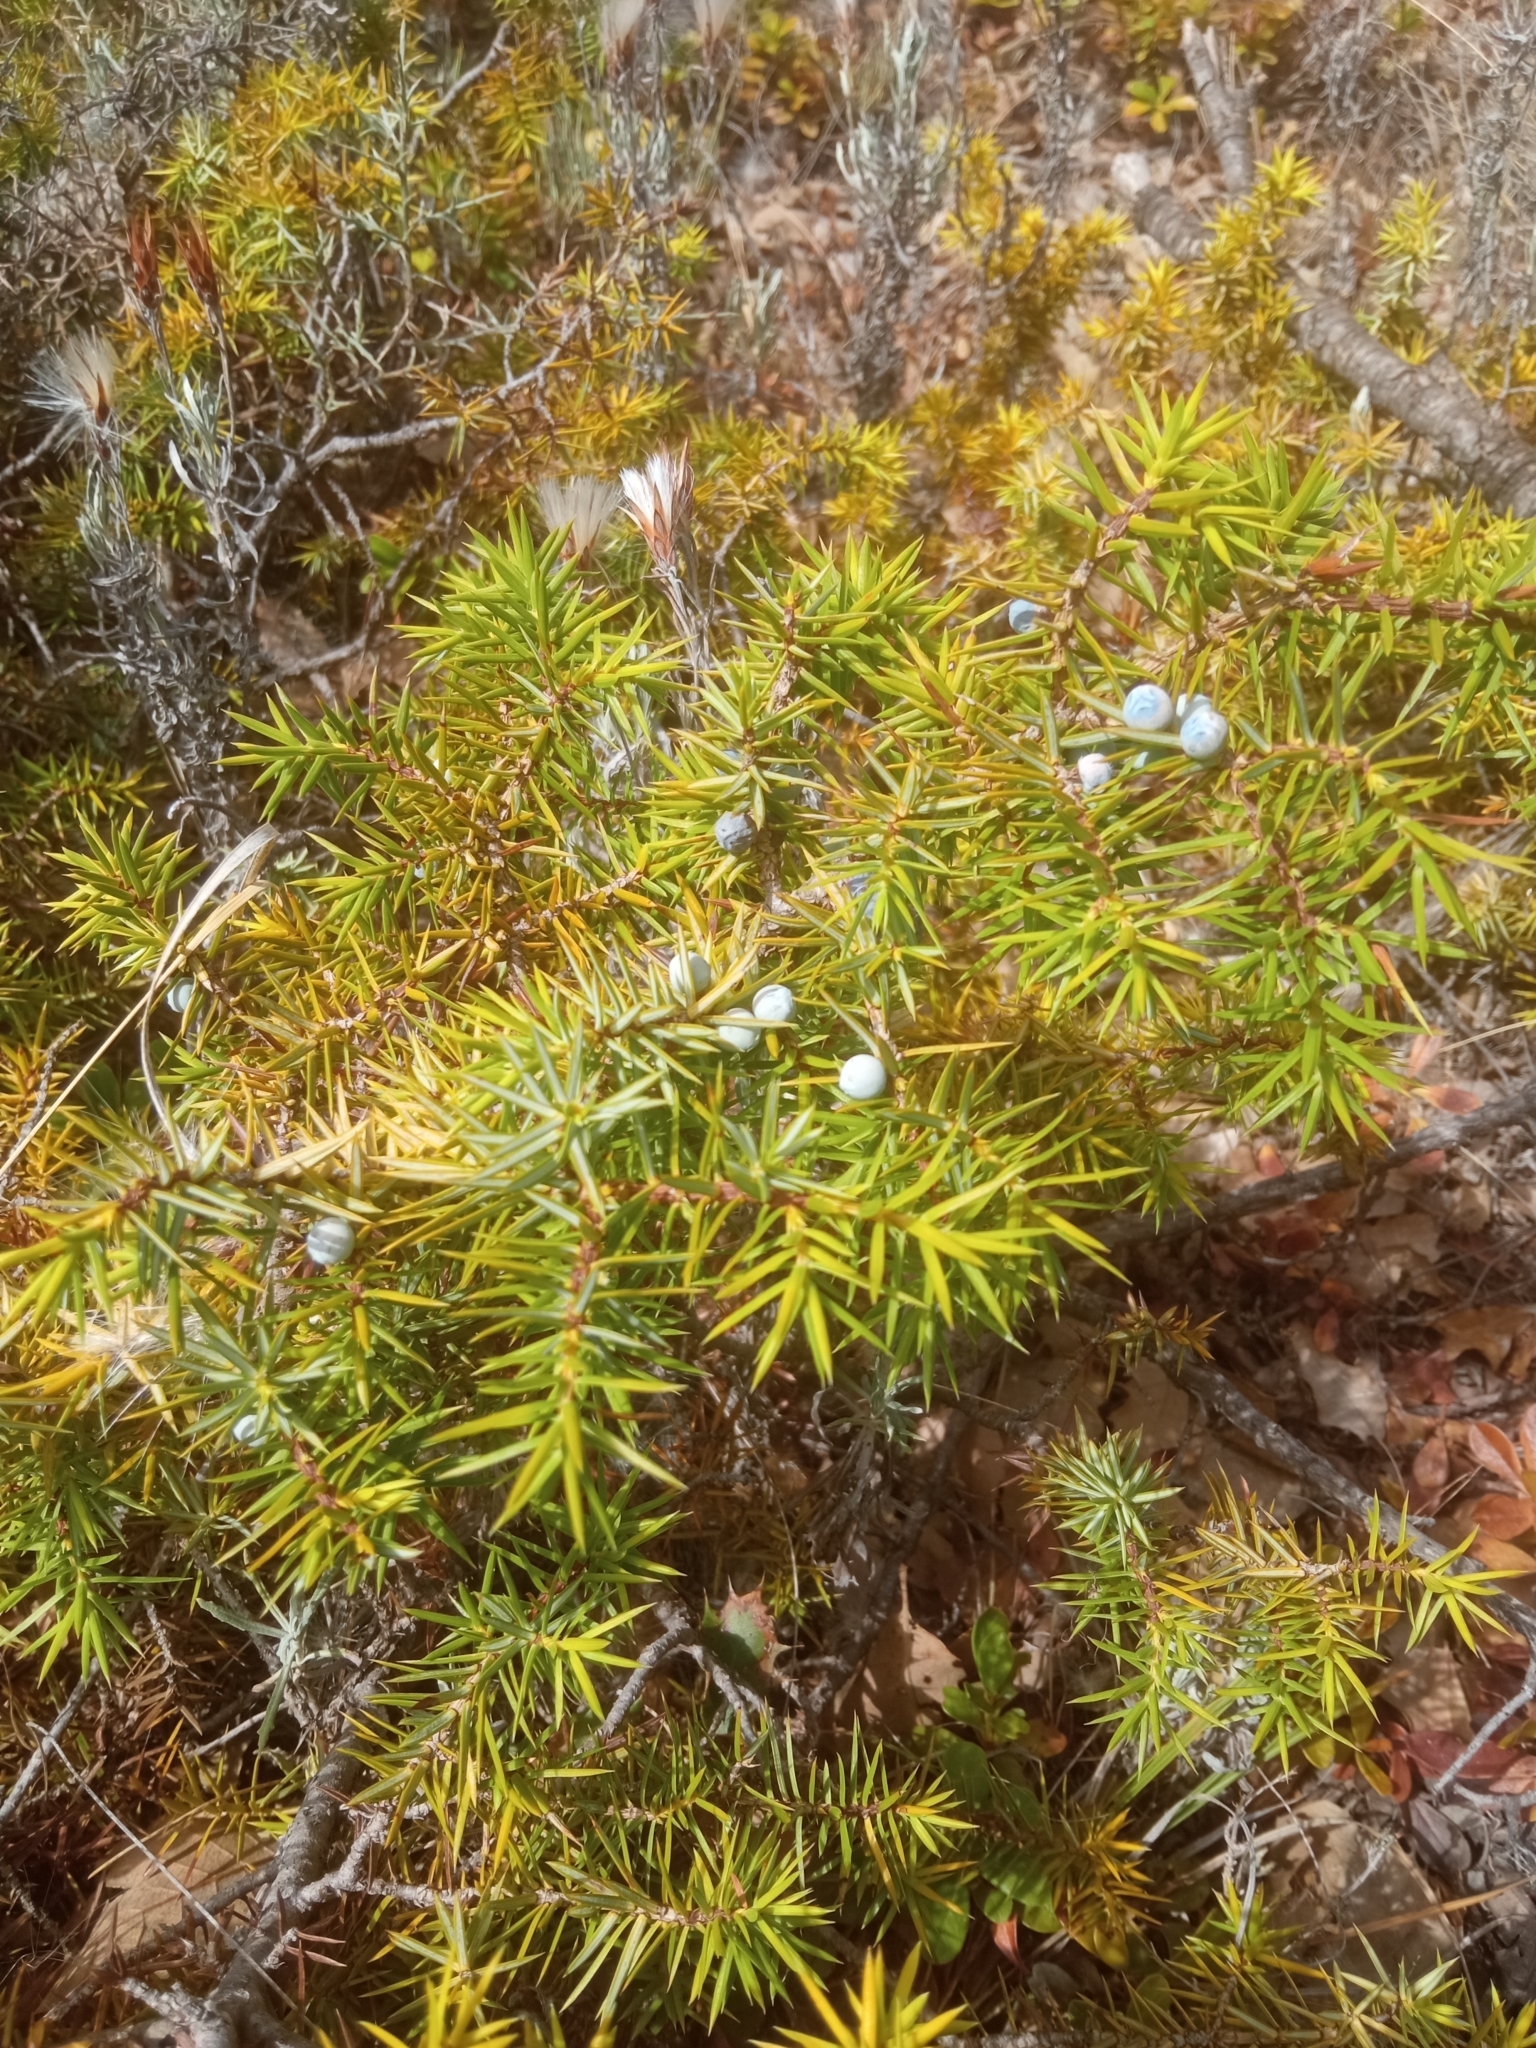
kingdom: Plantae
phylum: Tracheophyta
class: Pinopsida
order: Pinales
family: Cupressaceae
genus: Juniperus
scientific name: Juniperus communis
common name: Common juniper
